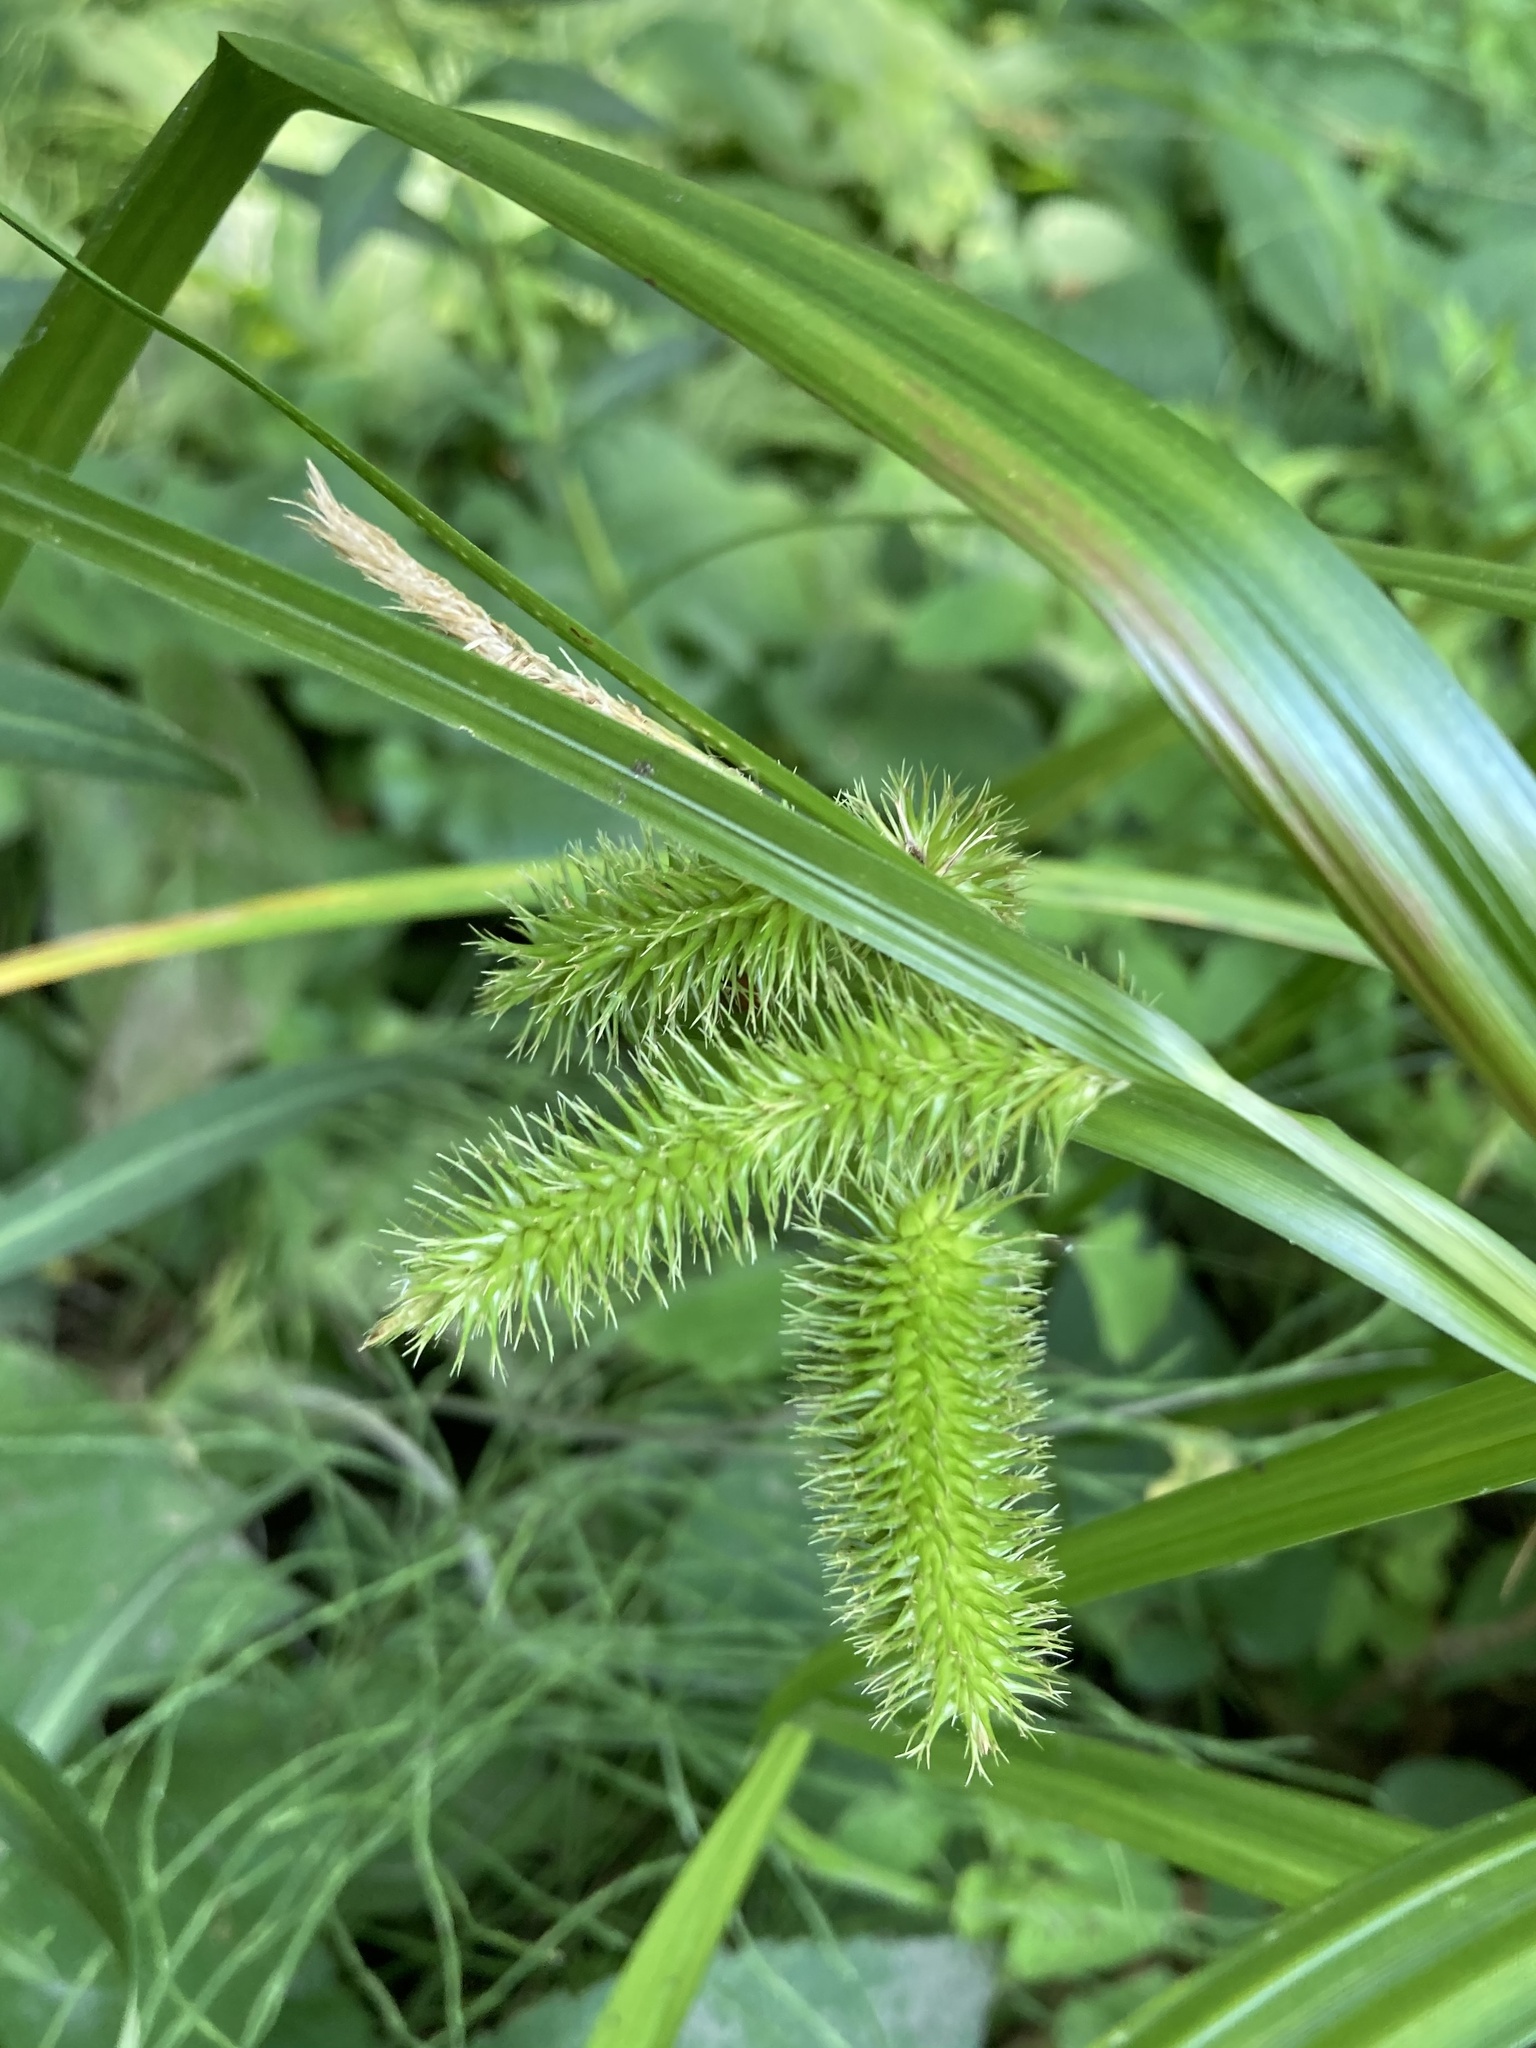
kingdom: Plantae
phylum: Tracheophyta
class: Liliopsida
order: Poales
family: Cyperaceae
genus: Carex
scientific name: Carex comosa
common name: Bristly sedge
